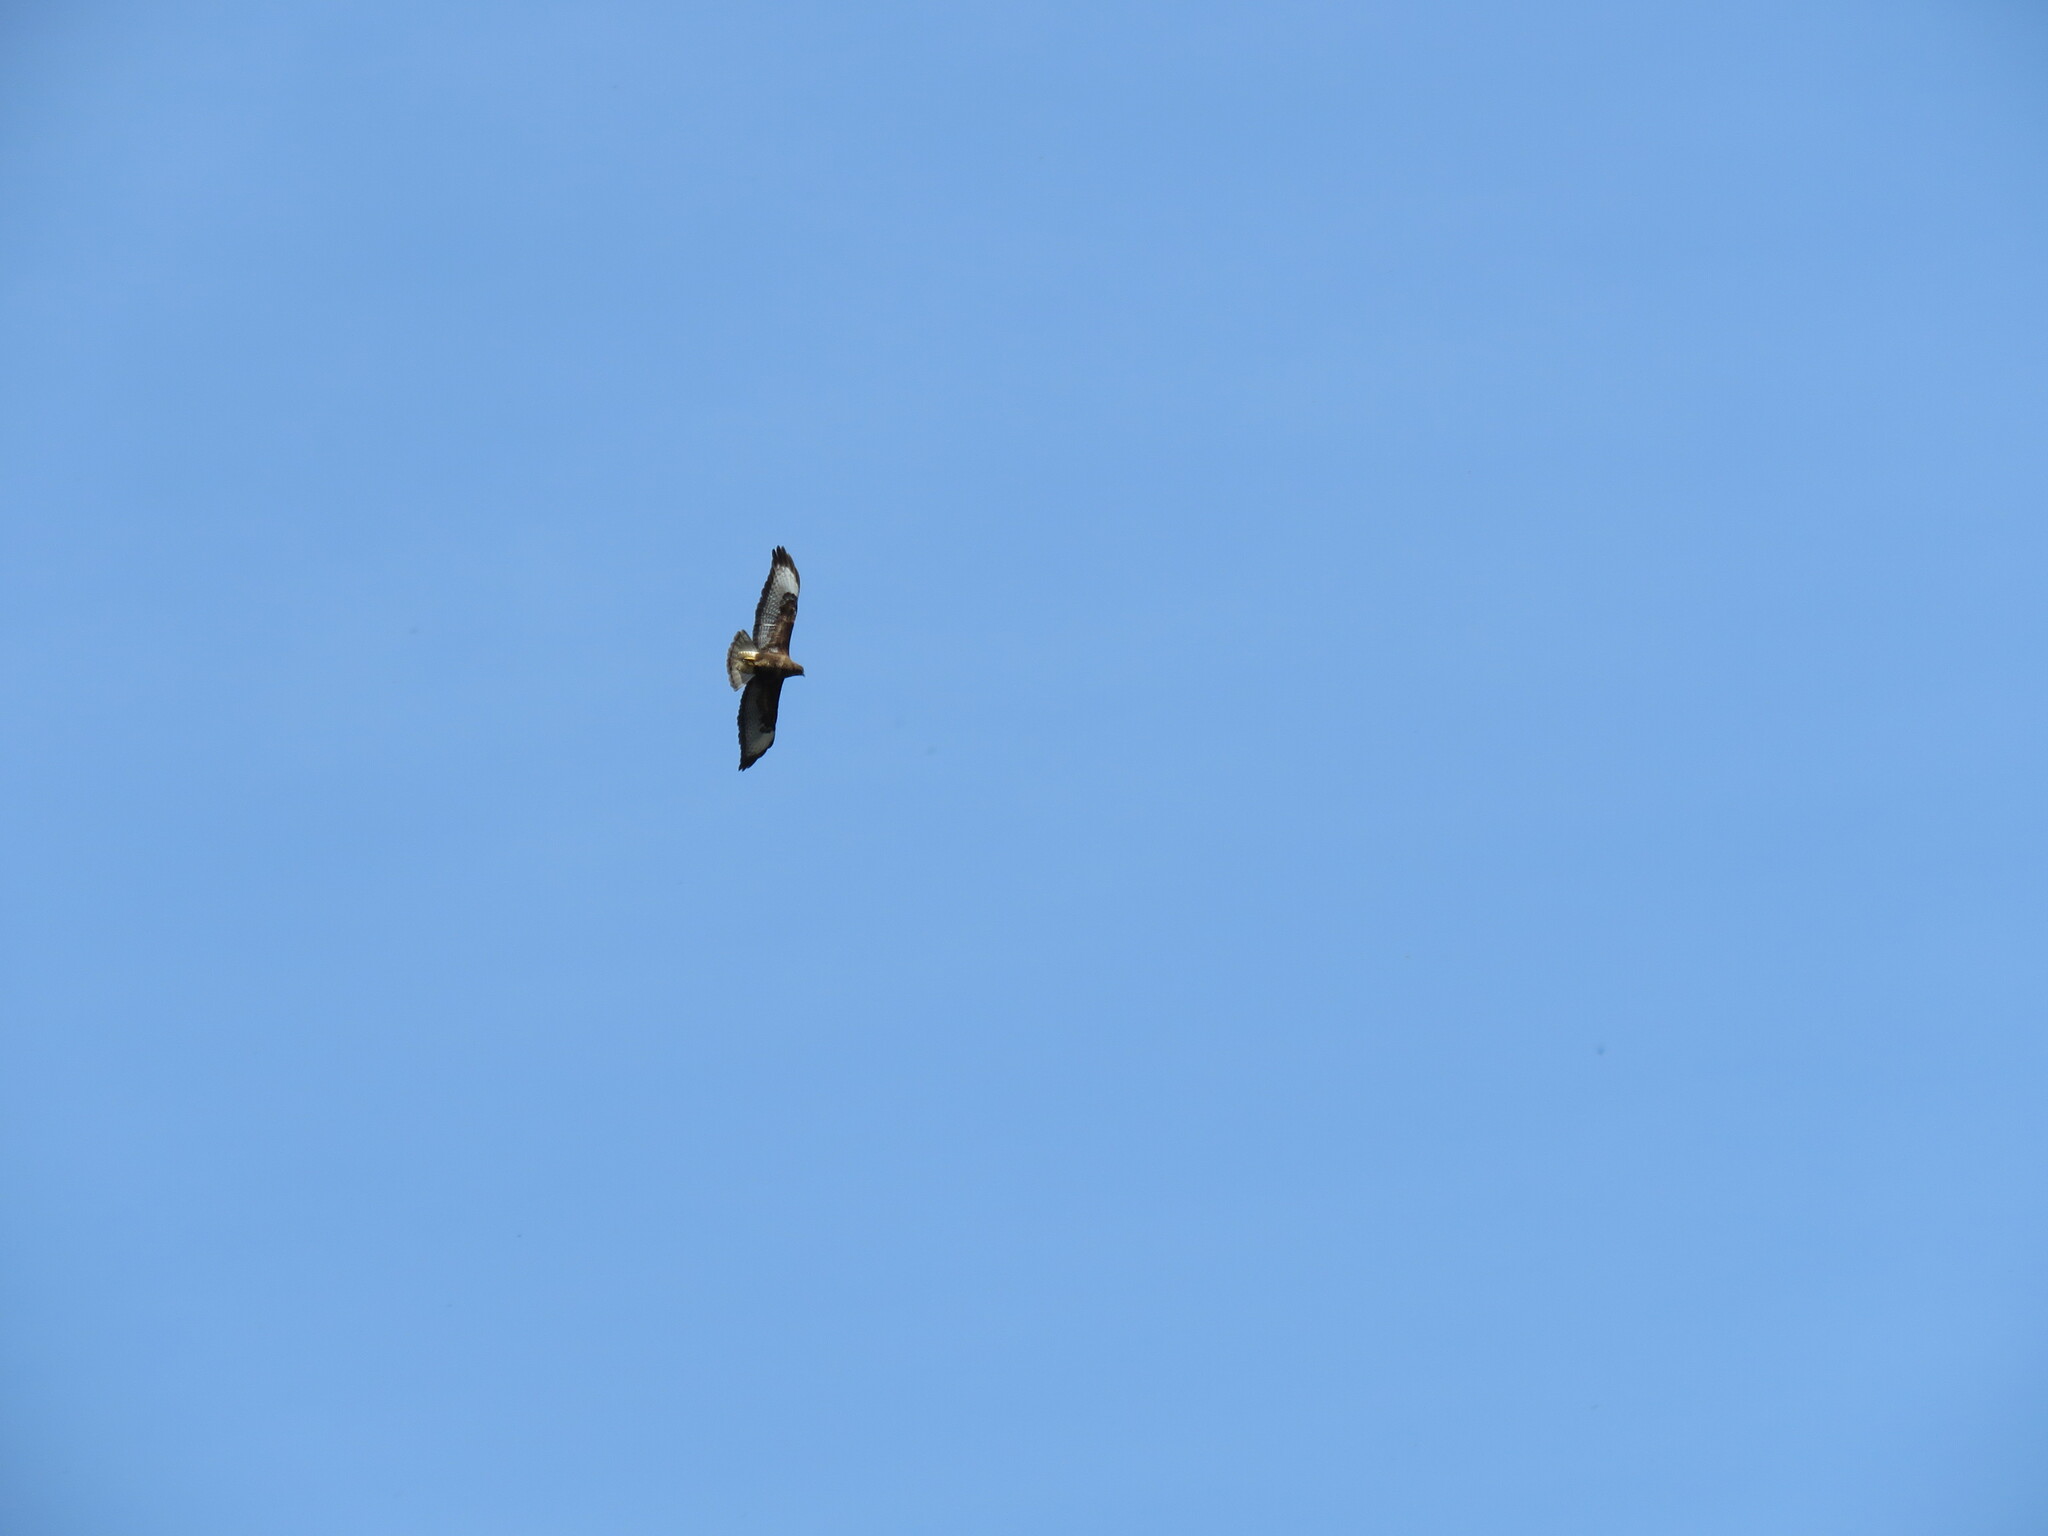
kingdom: Animalia
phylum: Chordata
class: Aves
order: Accipitriformes
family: Accipitridae
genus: Buteo
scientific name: Buteo buteo
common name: Common buzzard
